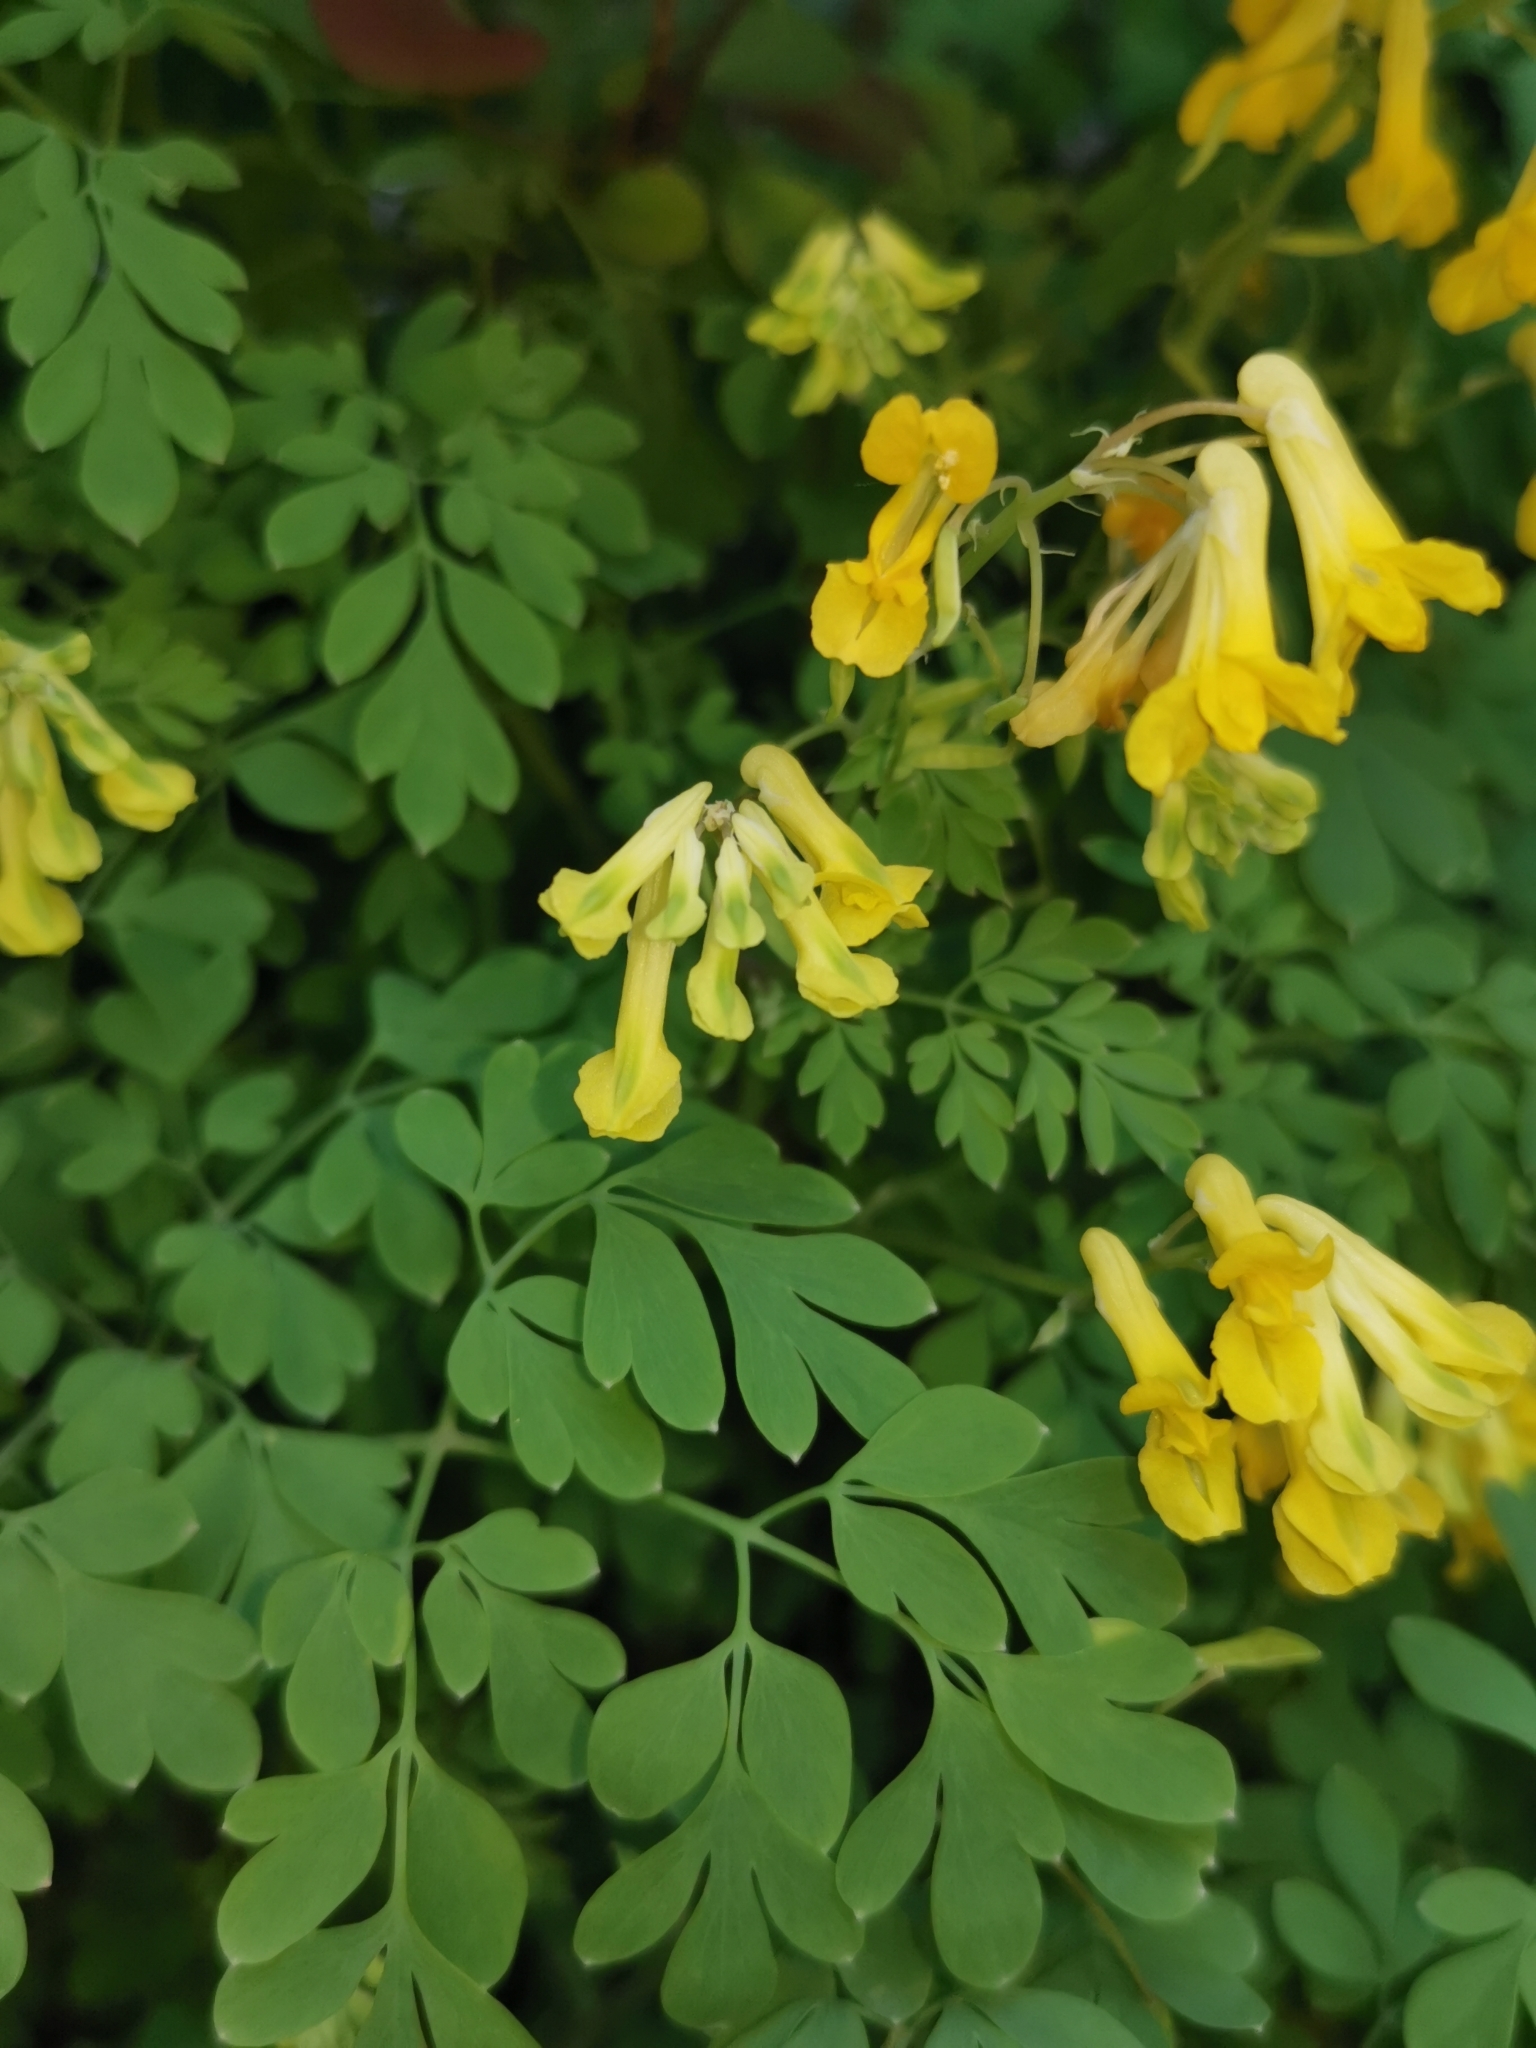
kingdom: Plantae
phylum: Tracheophyta
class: Magnoliopsida
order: Ranunculales
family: Papaveraceae
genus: Pseudofumaria
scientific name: Pseudofumaria lutea
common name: Yellow corydalis
